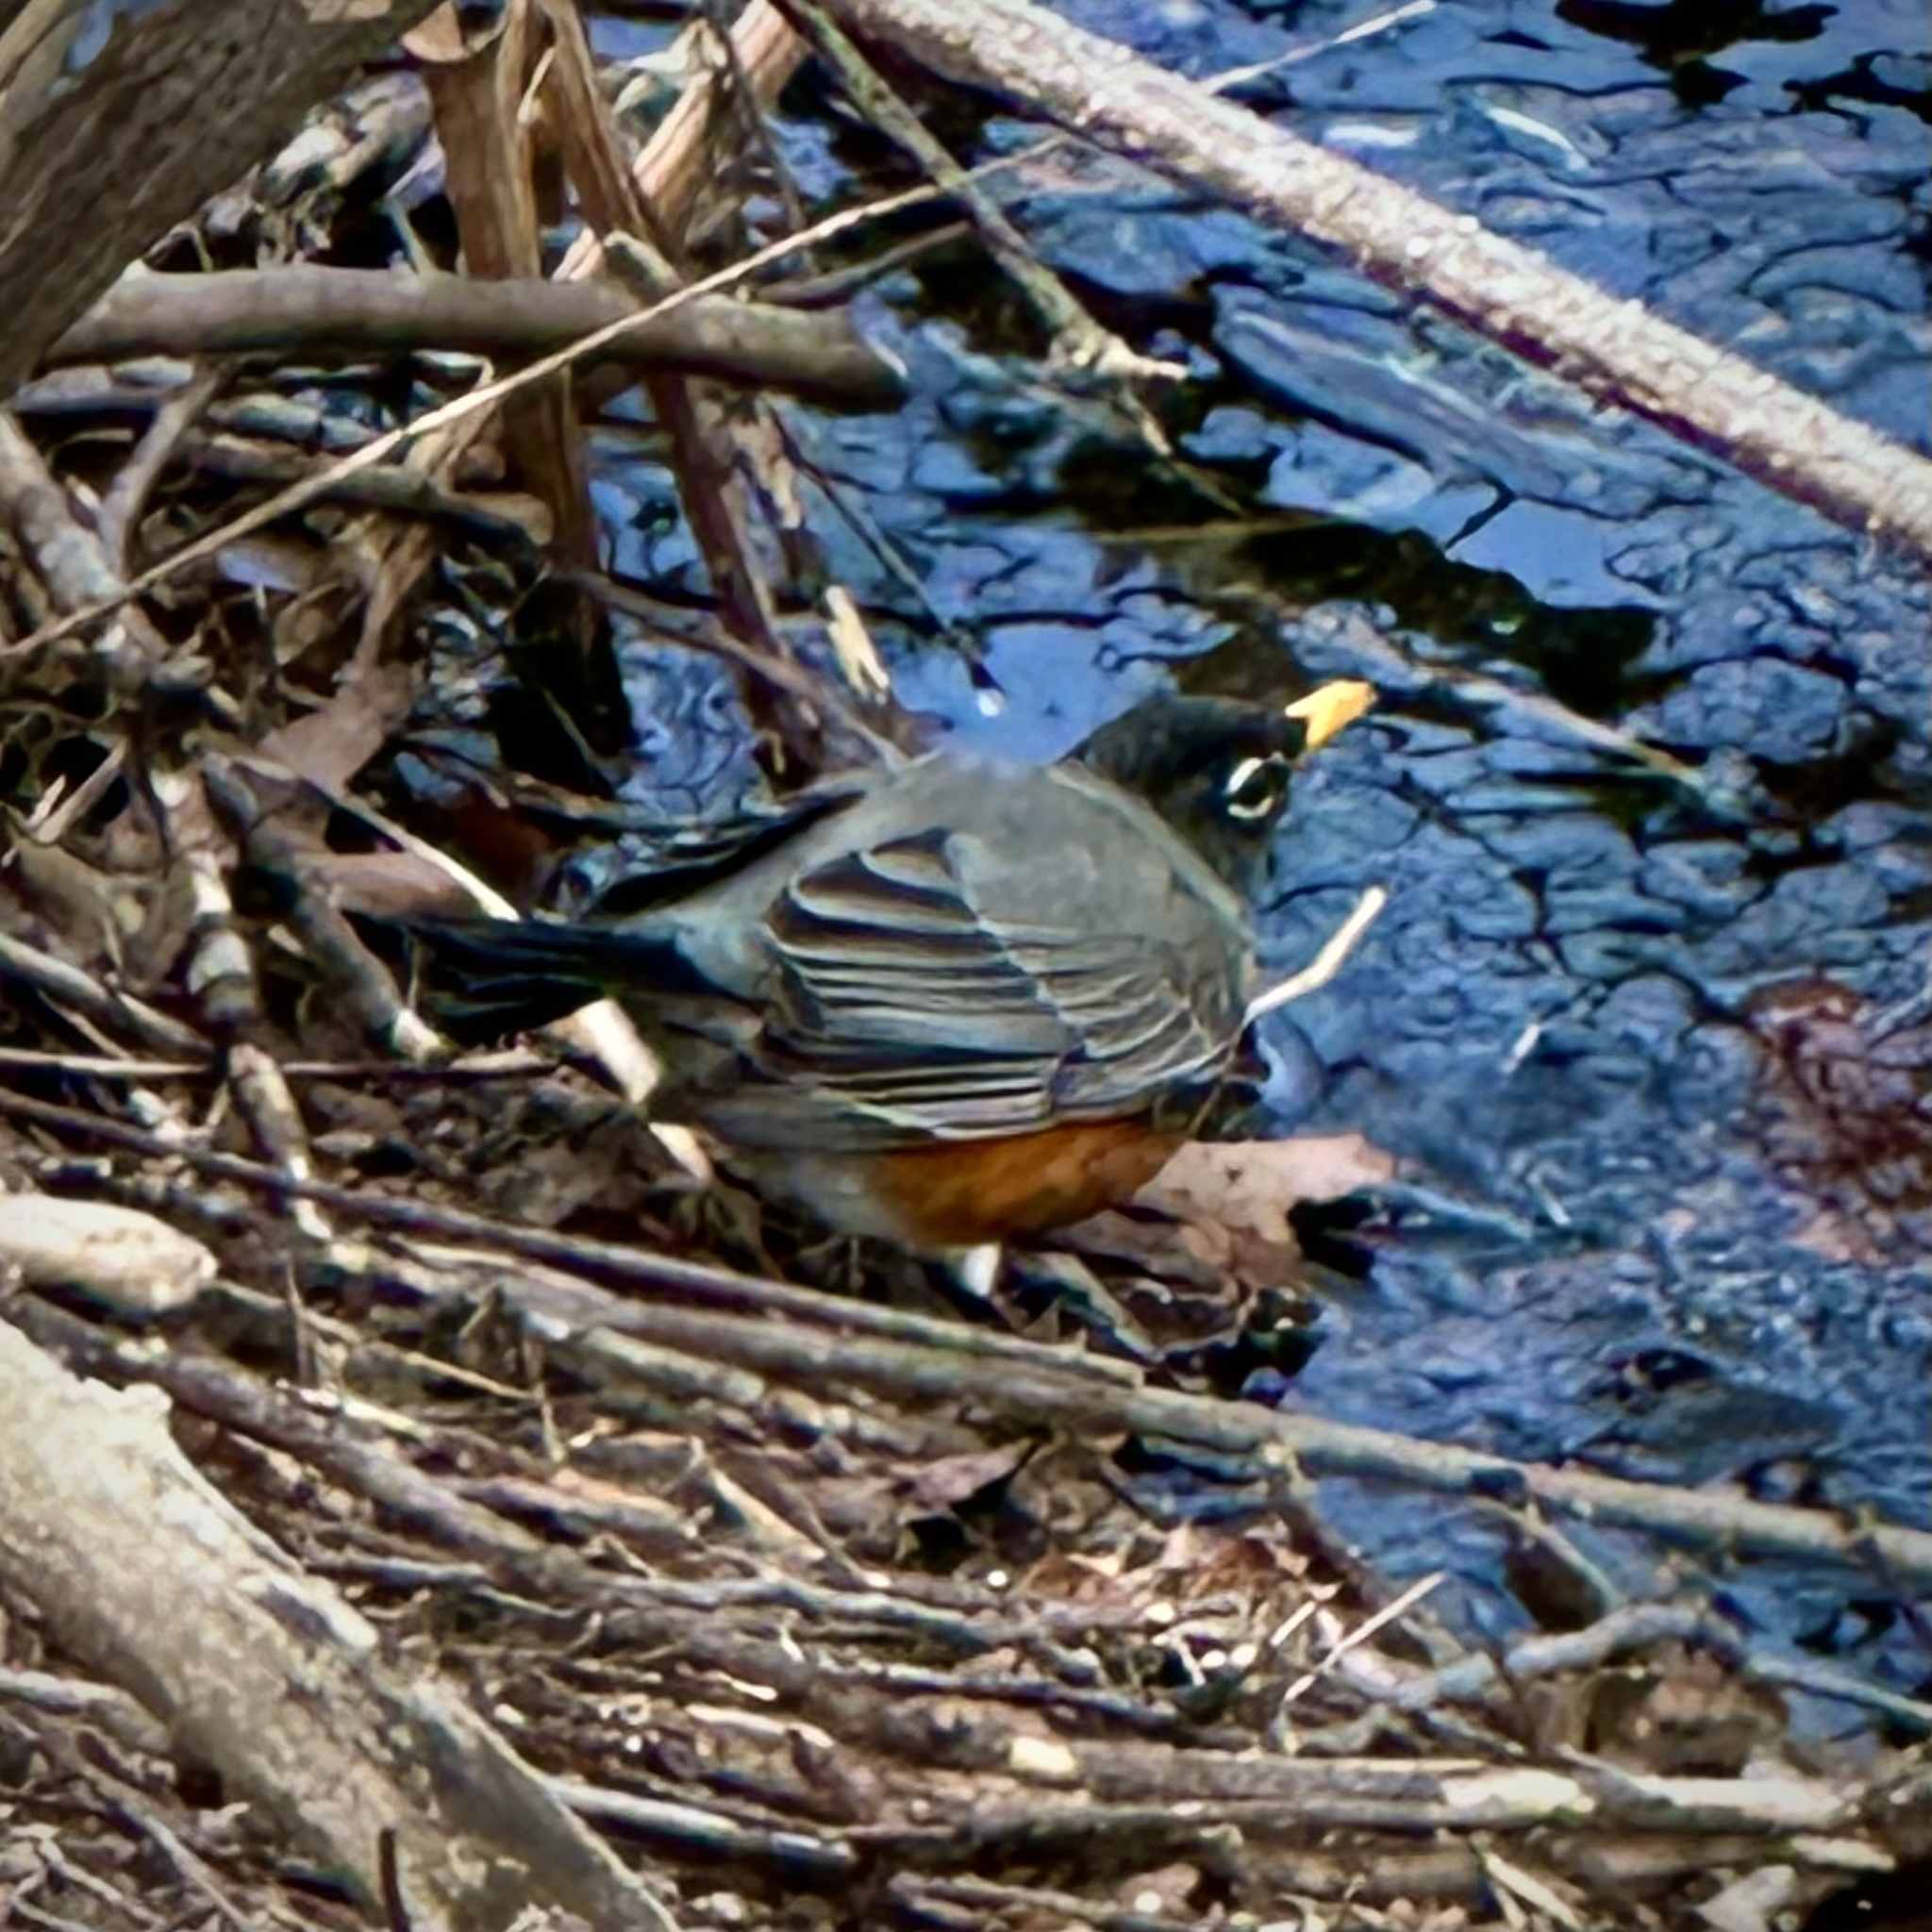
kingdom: Animalia
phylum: Chordata
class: Aves
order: Passeriformes
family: Turdidae
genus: Turdus
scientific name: Turdus migratorius
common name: American robin
